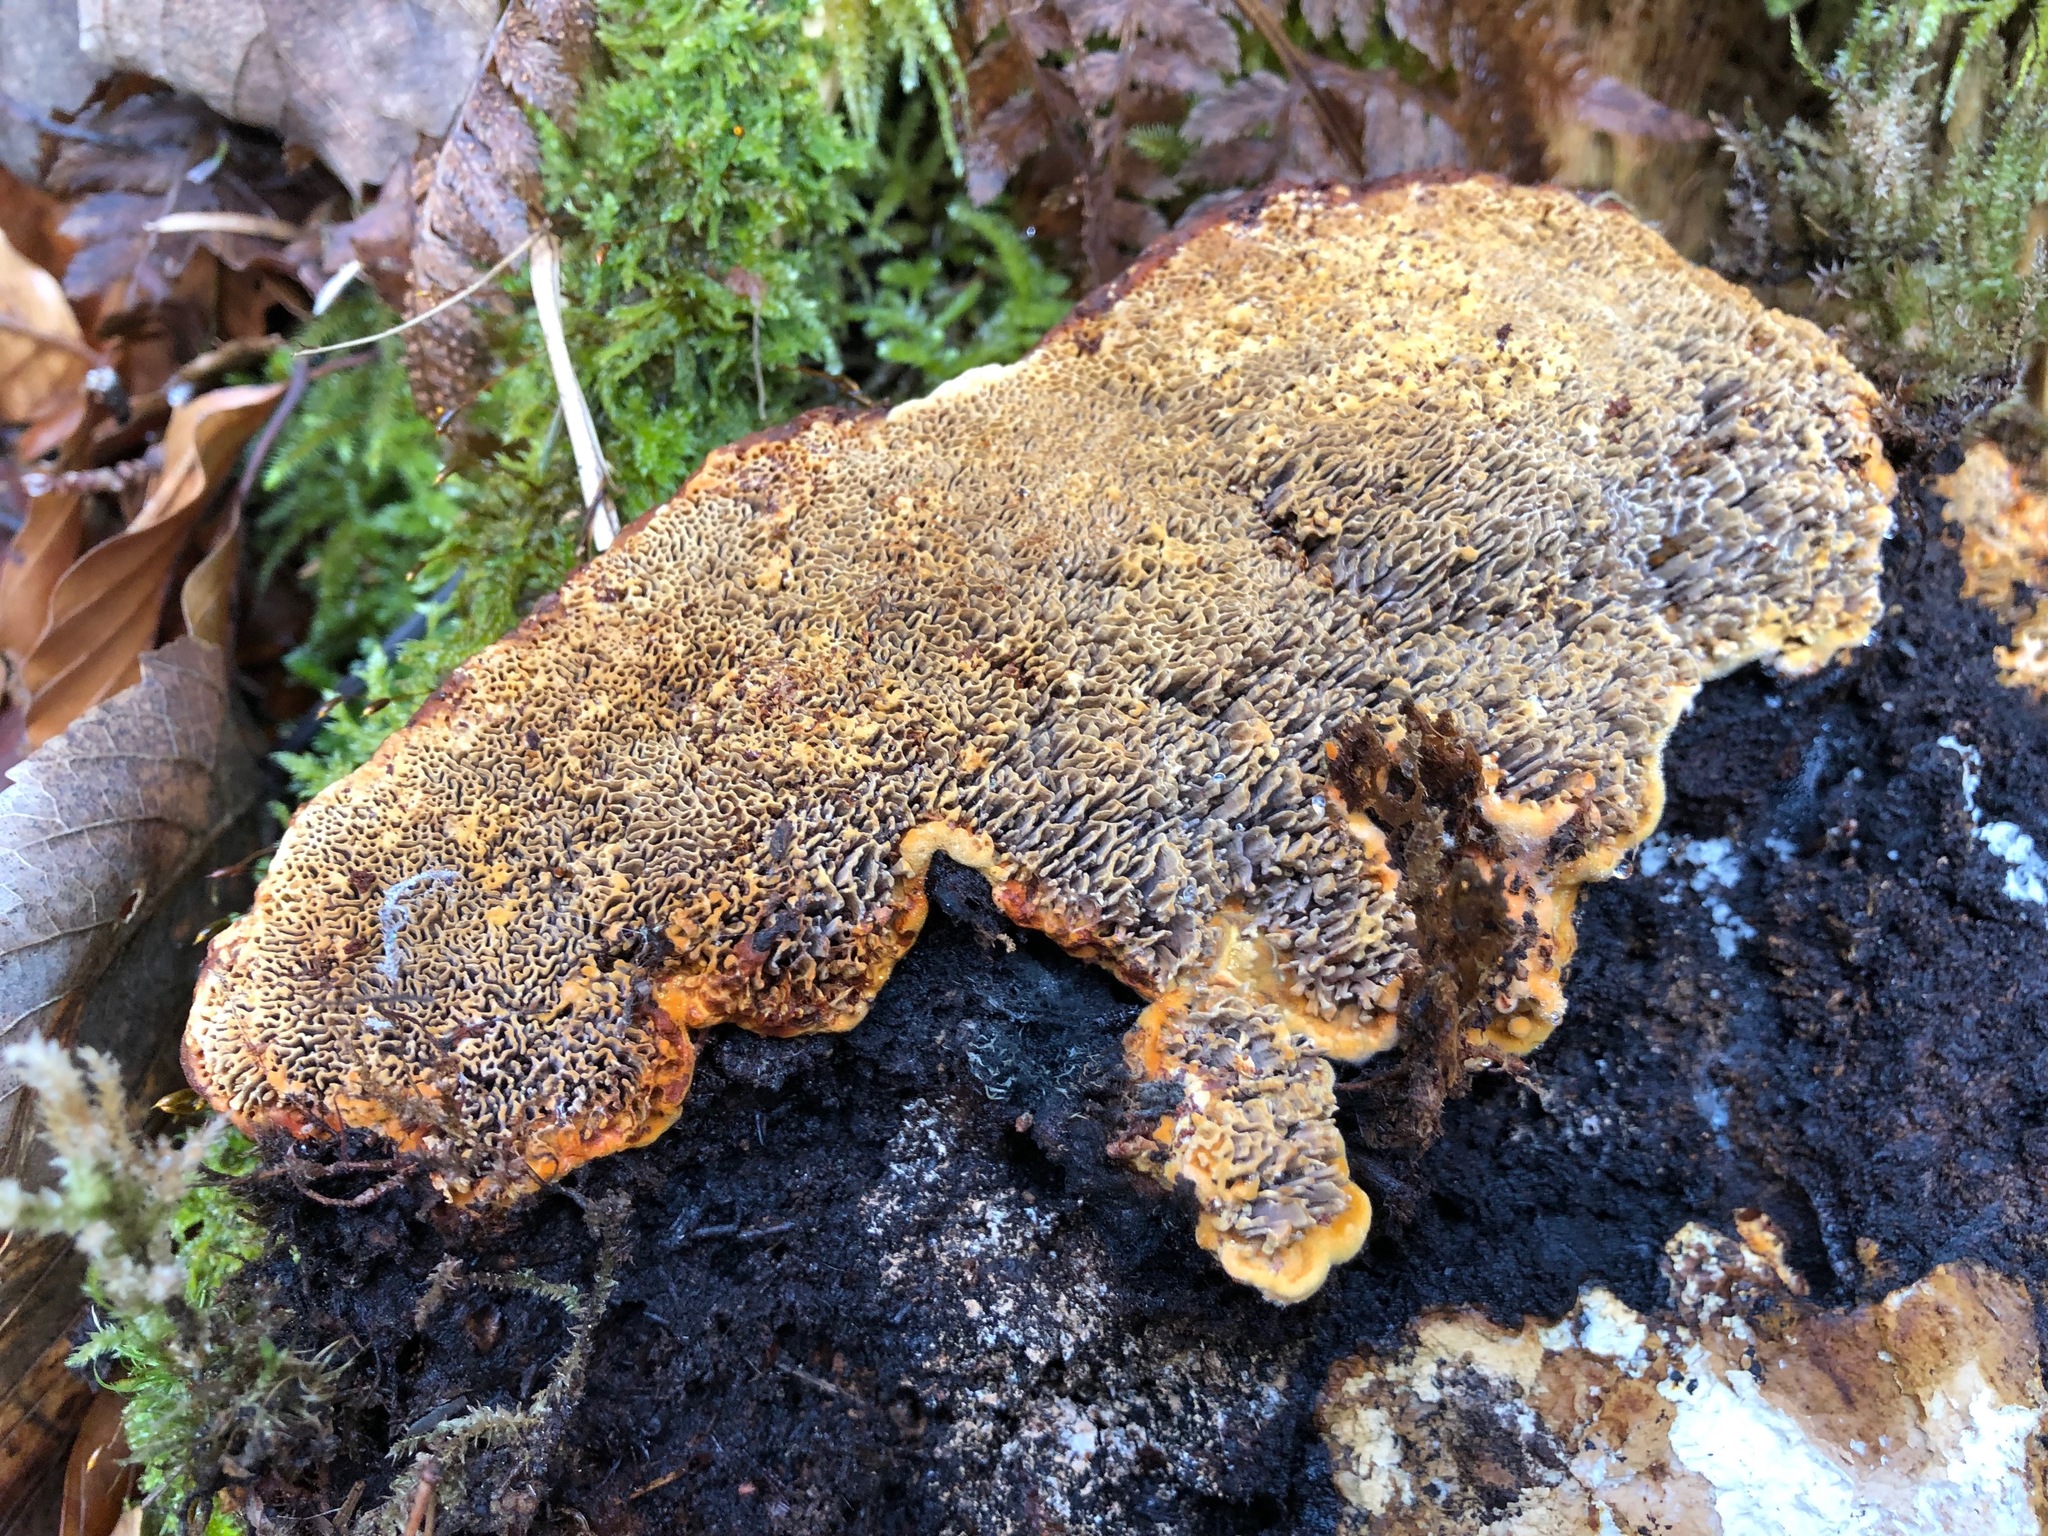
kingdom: Fungi
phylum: Basidiomycota
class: Agaricomycetes
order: Gloeophyllales
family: Gloeophyllaceae
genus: Gloeophyllum
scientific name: Gloeophyllum odoratum
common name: Anise mazegill
